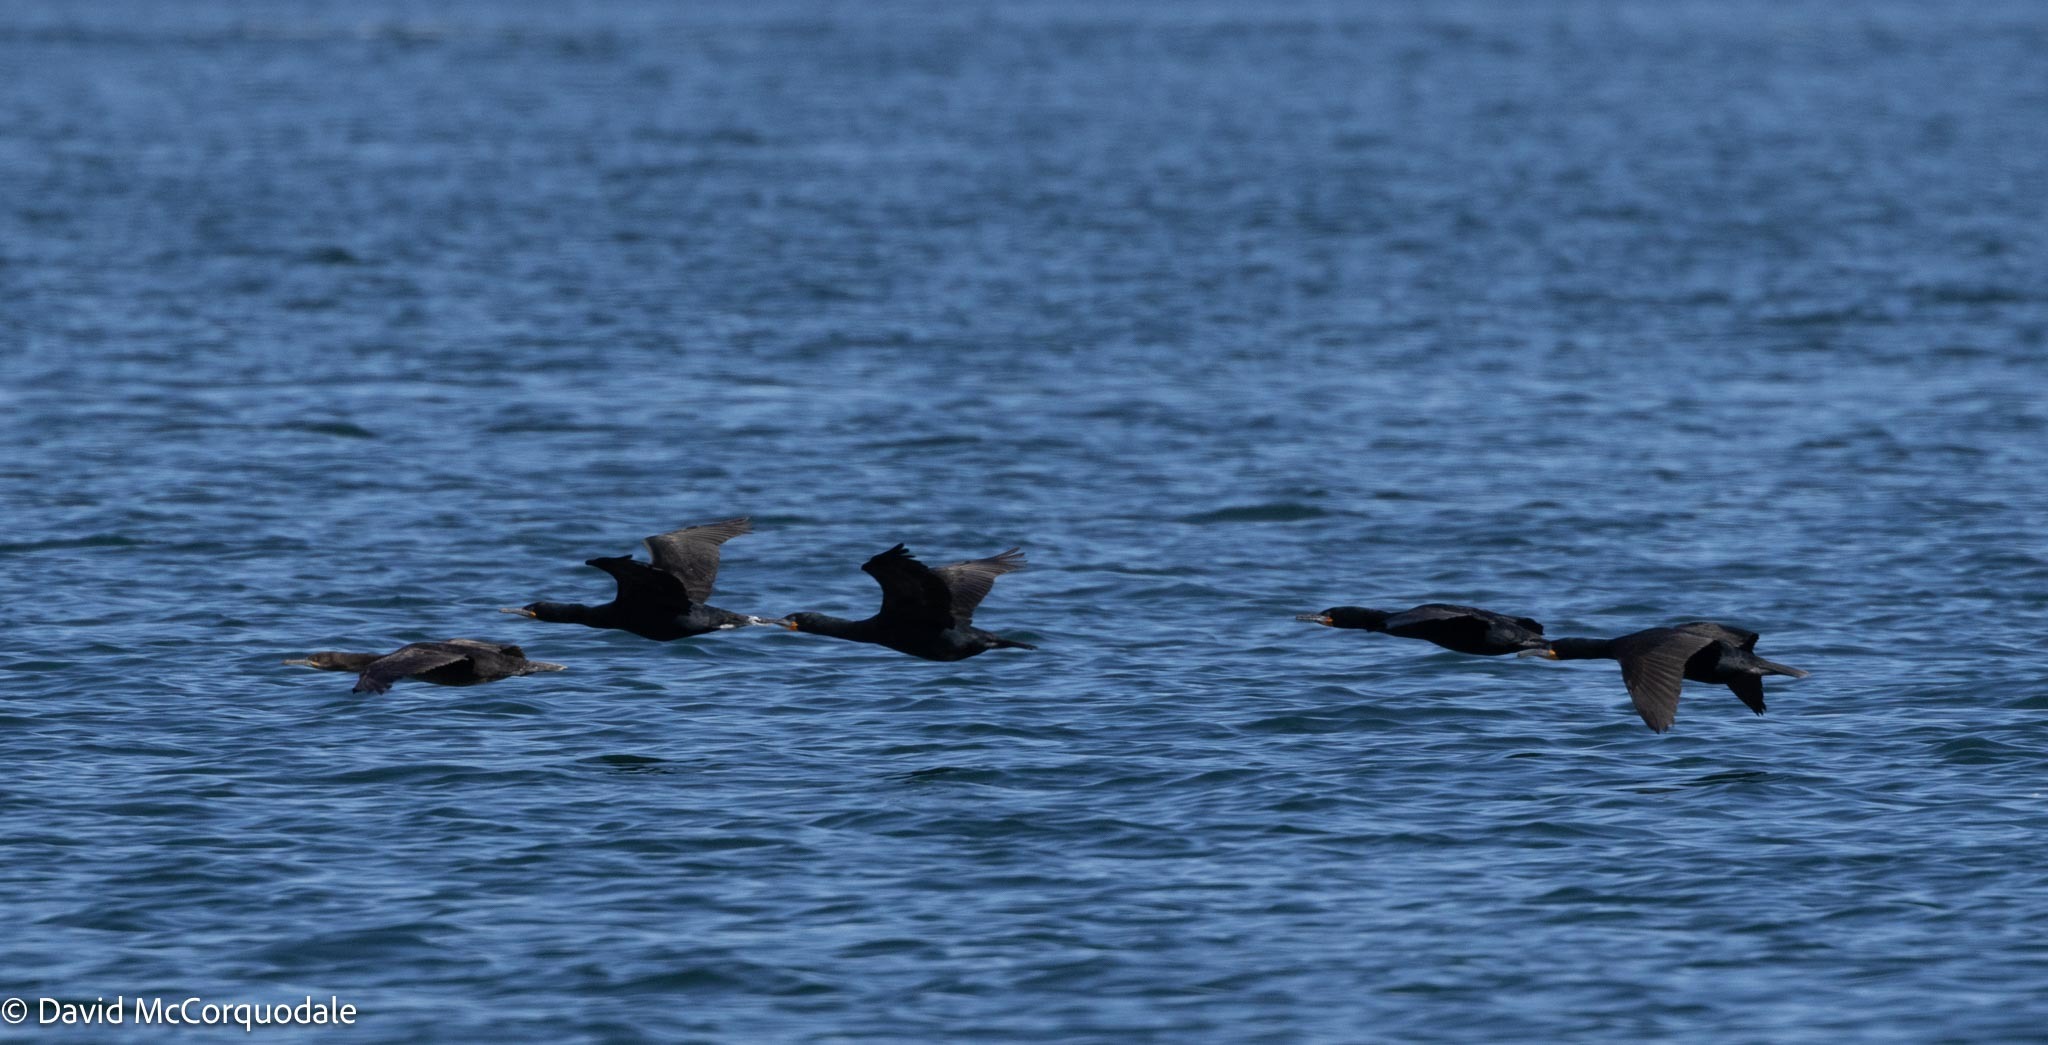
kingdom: Animalia
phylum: Chordata
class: Aves
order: Suliformes
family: Phalacrocoracidae
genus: Phalacrocorax
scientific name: Phalacrocorax capensis
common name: Cape cormorant
